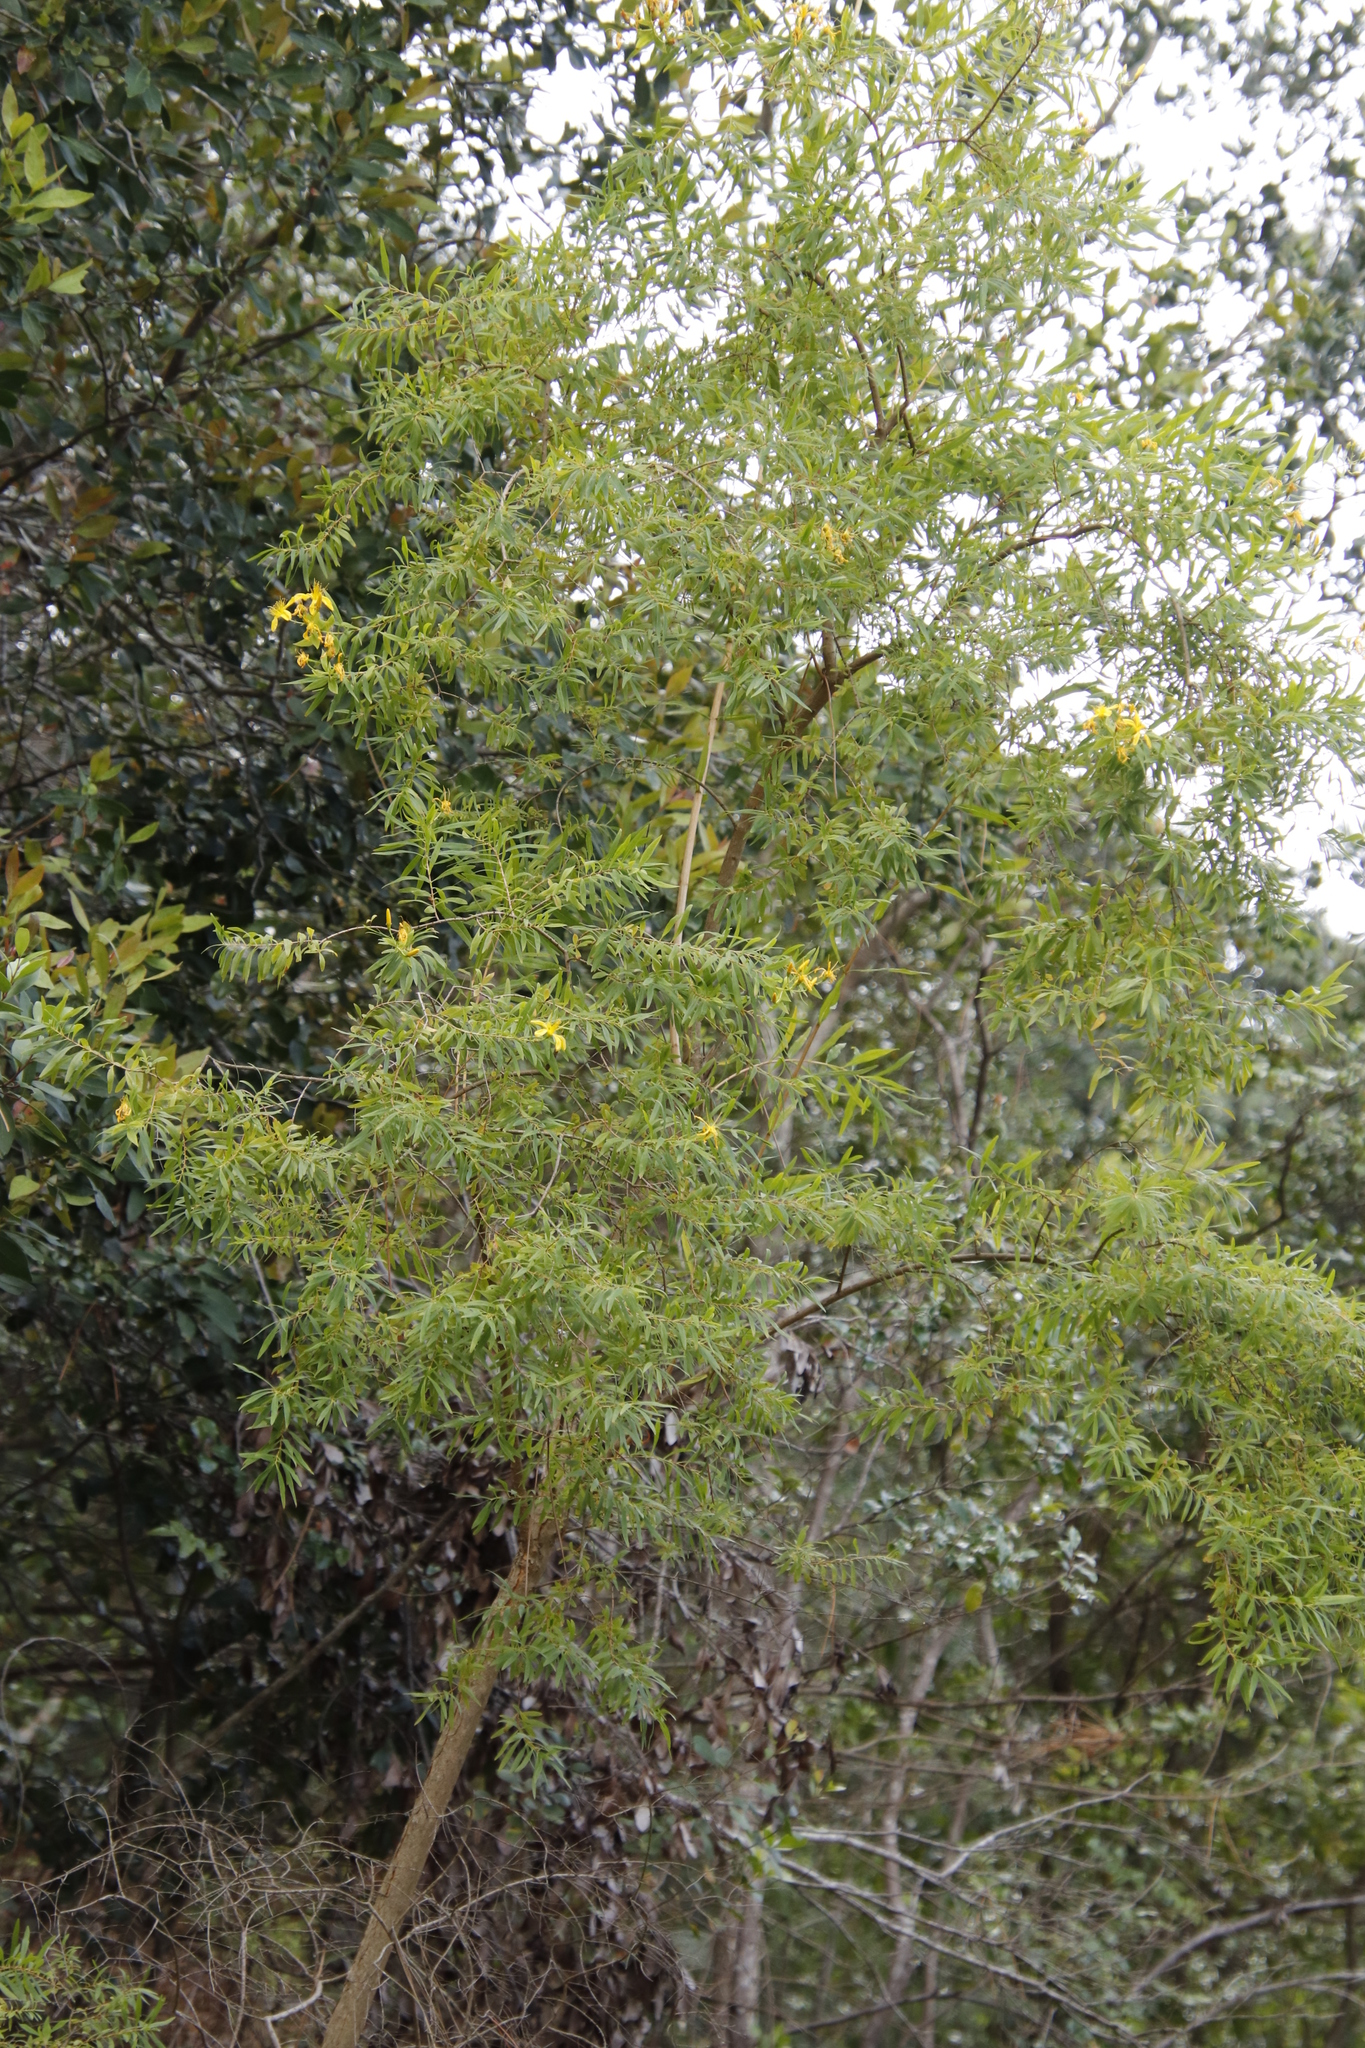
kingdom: Plantae
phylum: Tracheophyta
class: Magnoliopsida
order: Malpighiales
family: Hypericaceae
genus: Hypericum
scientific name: Hypericum canariense
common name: Canary island st. johnswort
